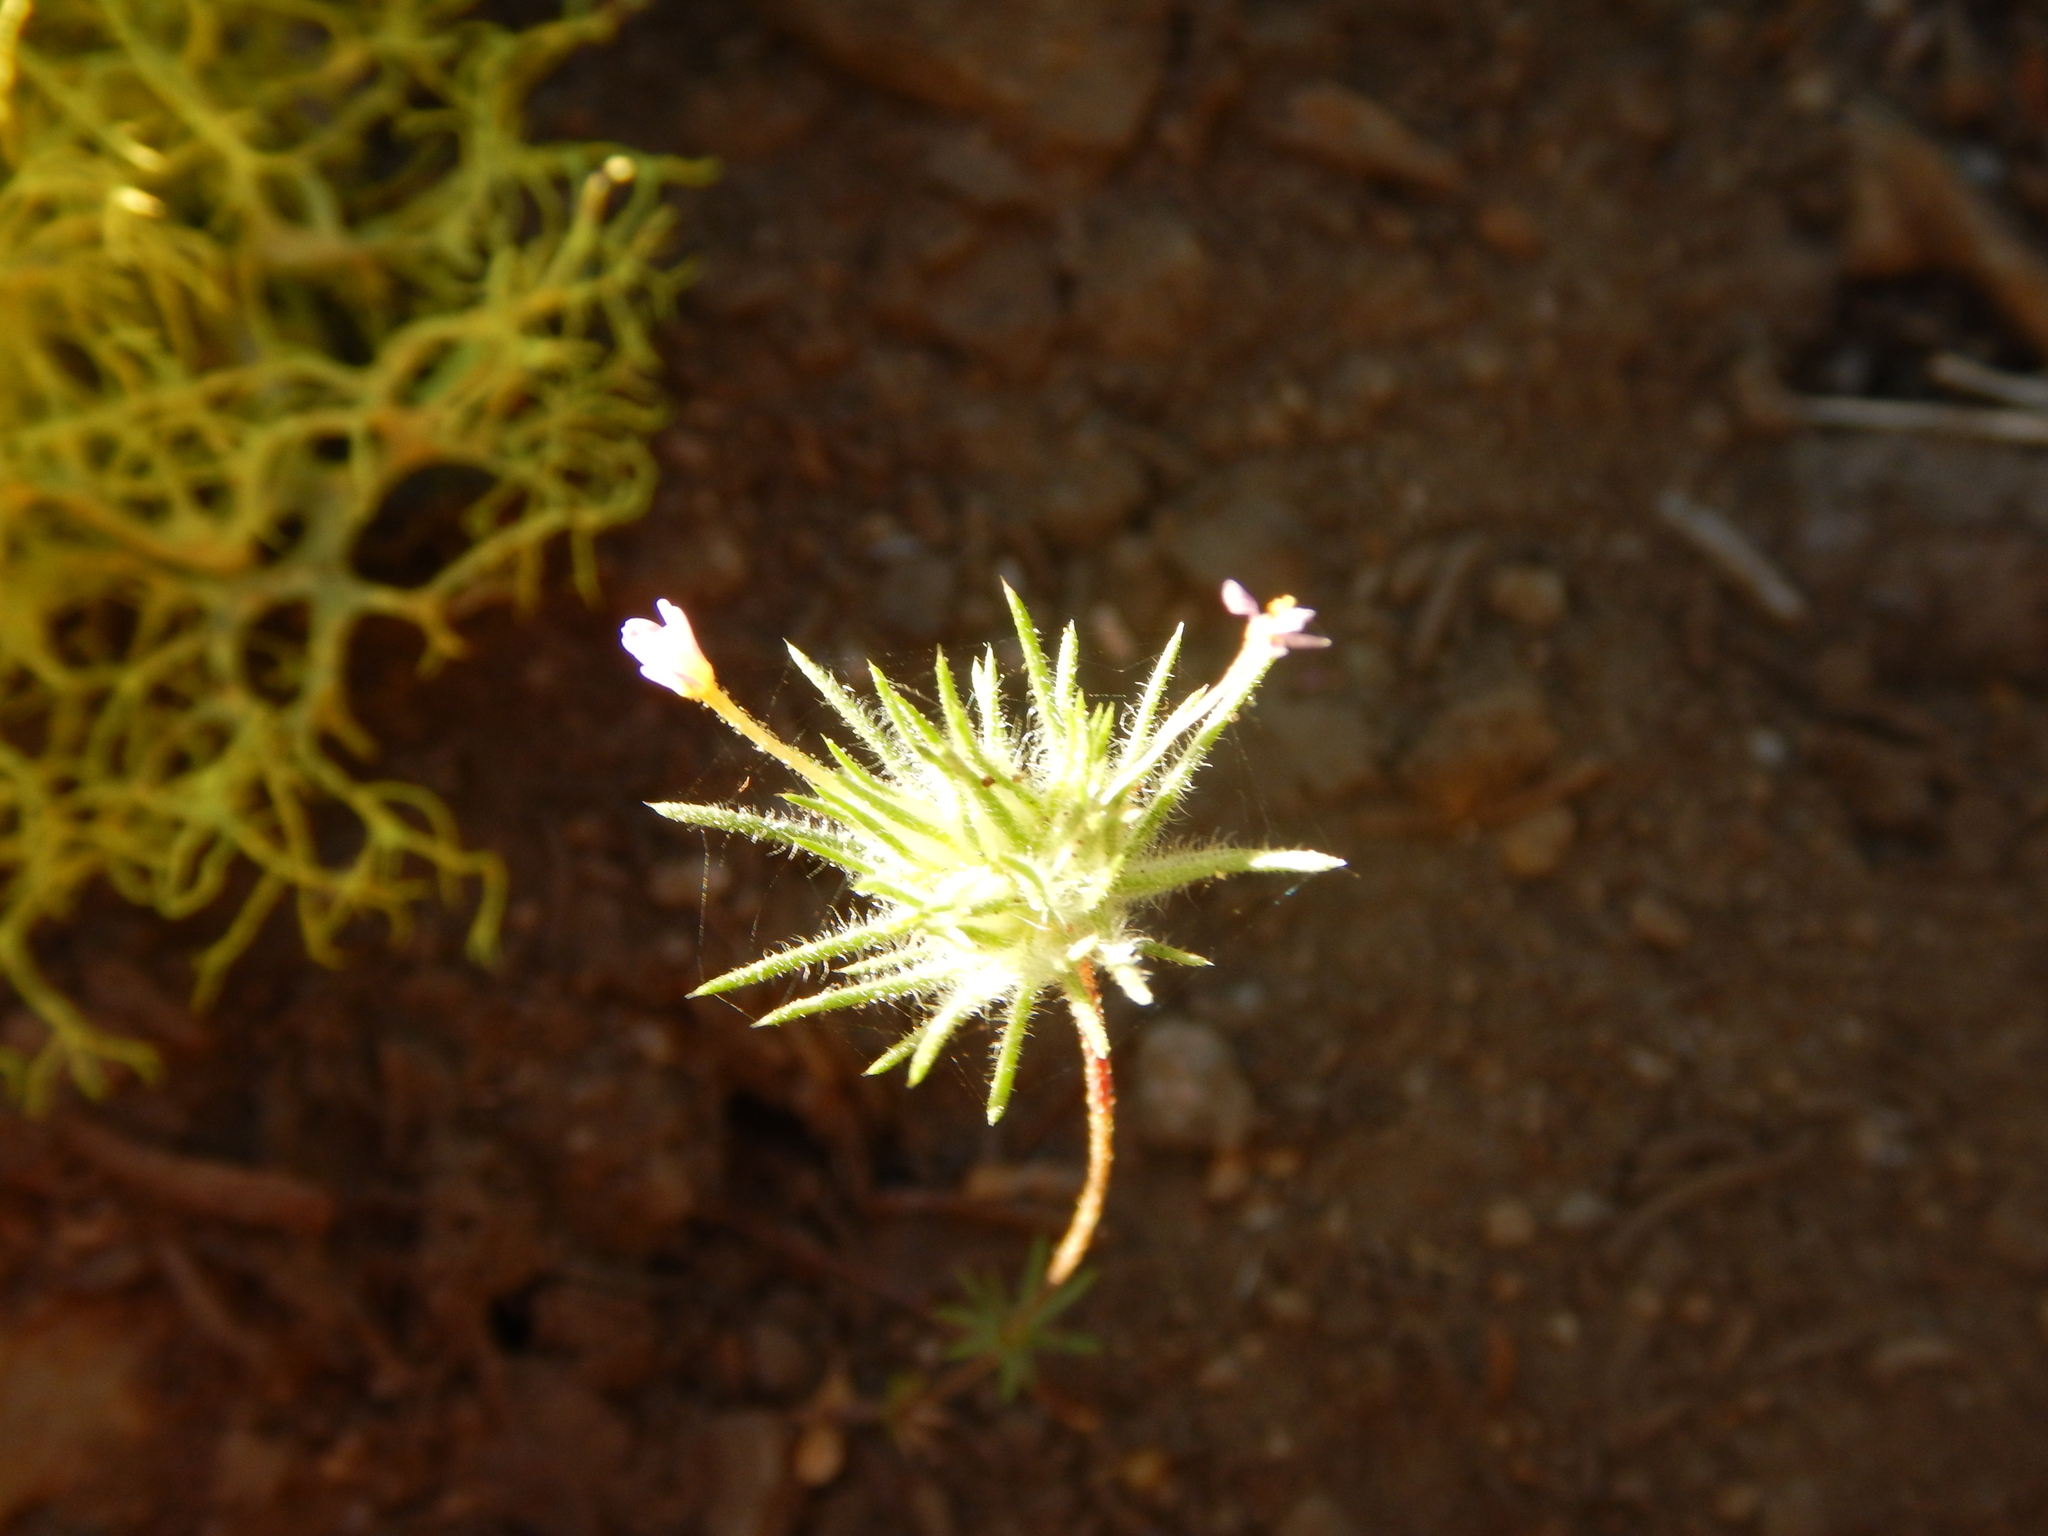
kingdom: Plantae
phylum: Tracheophyta
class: Magnoliopsida
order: Ericales
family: Polemoniaceae
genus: Leptosiphon
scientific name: Leptosiphon ciliatus
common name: Whiskerbrush
